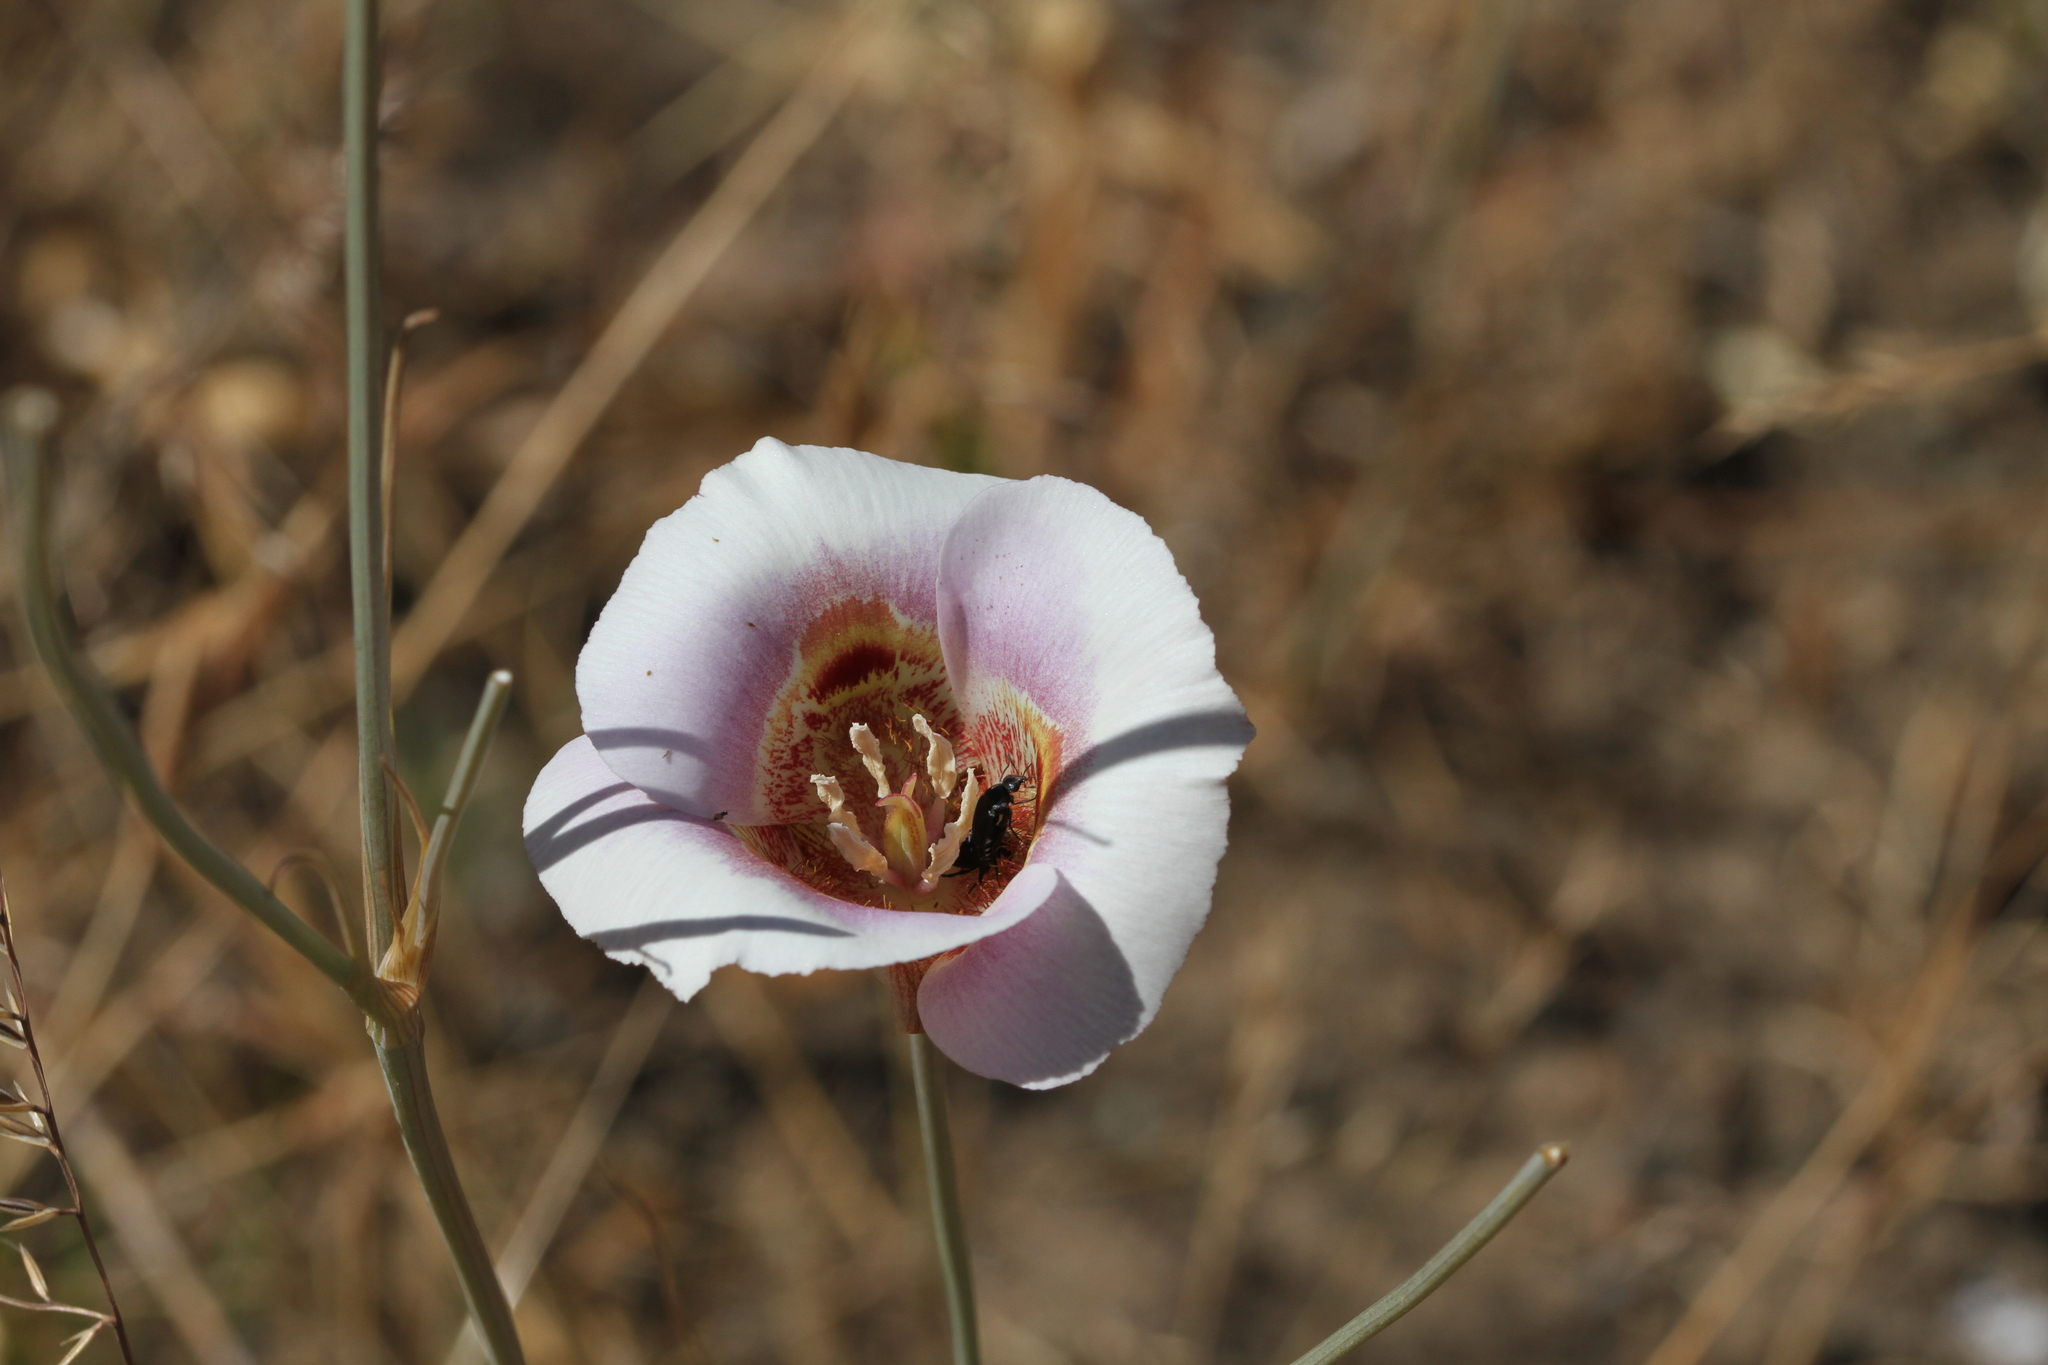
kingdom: Plantae
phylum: Tracheophyta
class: Liliopsida
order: Liliales
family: Liliaceae
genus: Calochortus
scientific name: Calochortus argillosus
